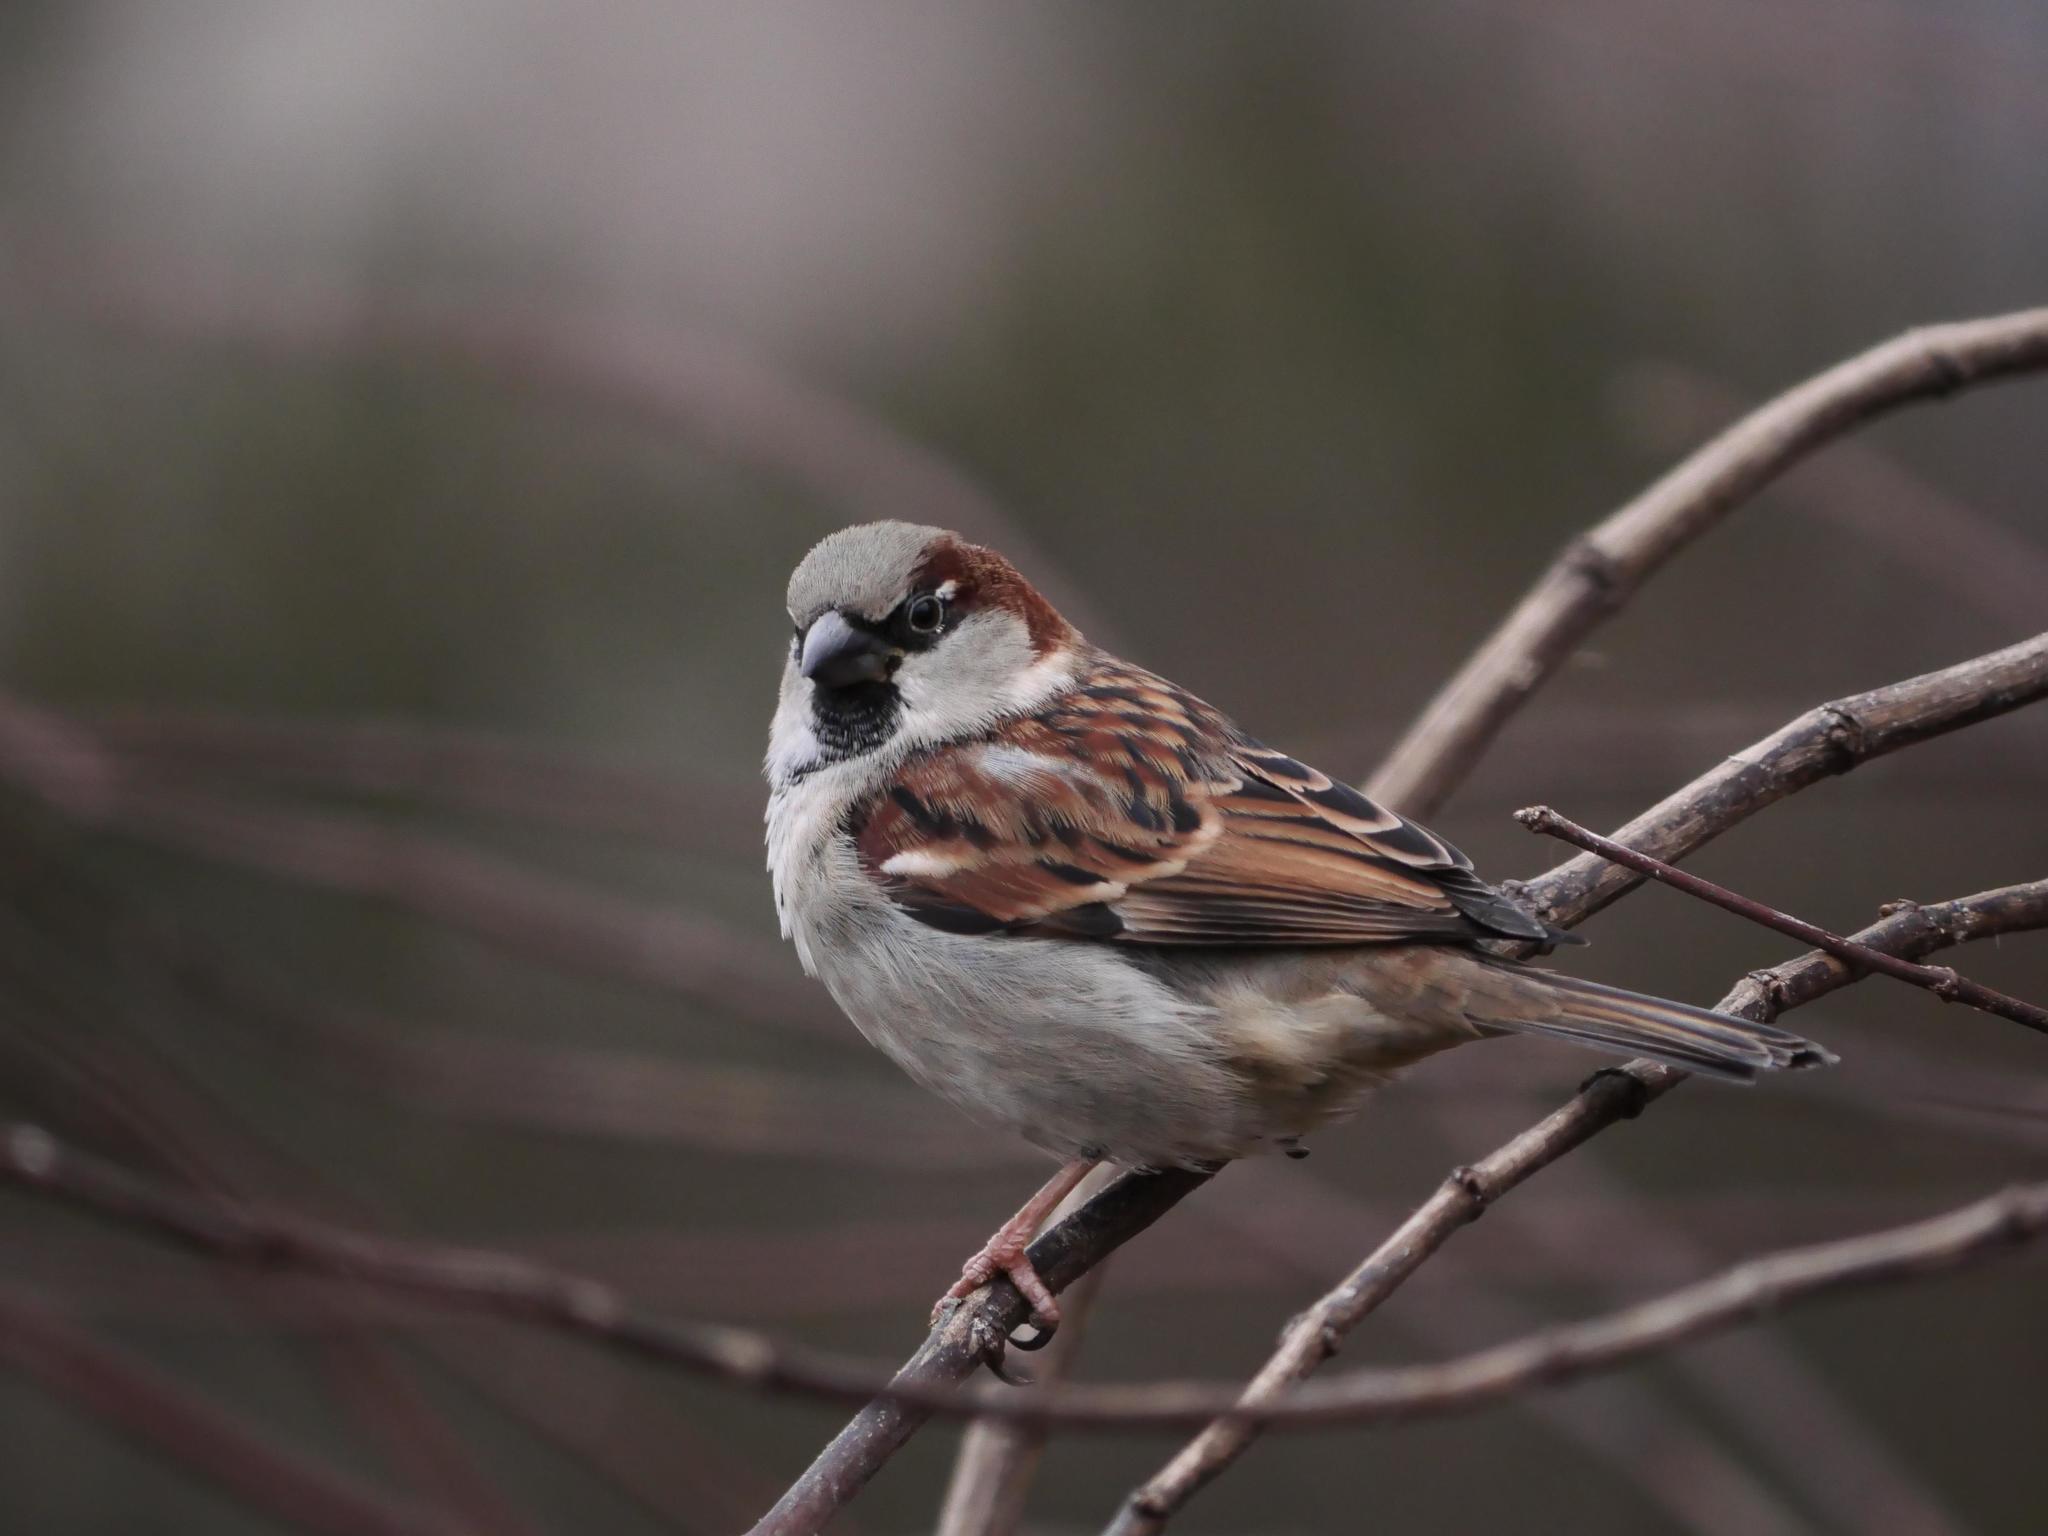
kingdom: Animalia
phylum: Chordata
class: Aves
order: Passeriformes
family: Passeridae
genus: Passer
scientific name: Passer domesticus
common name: House sparrow
